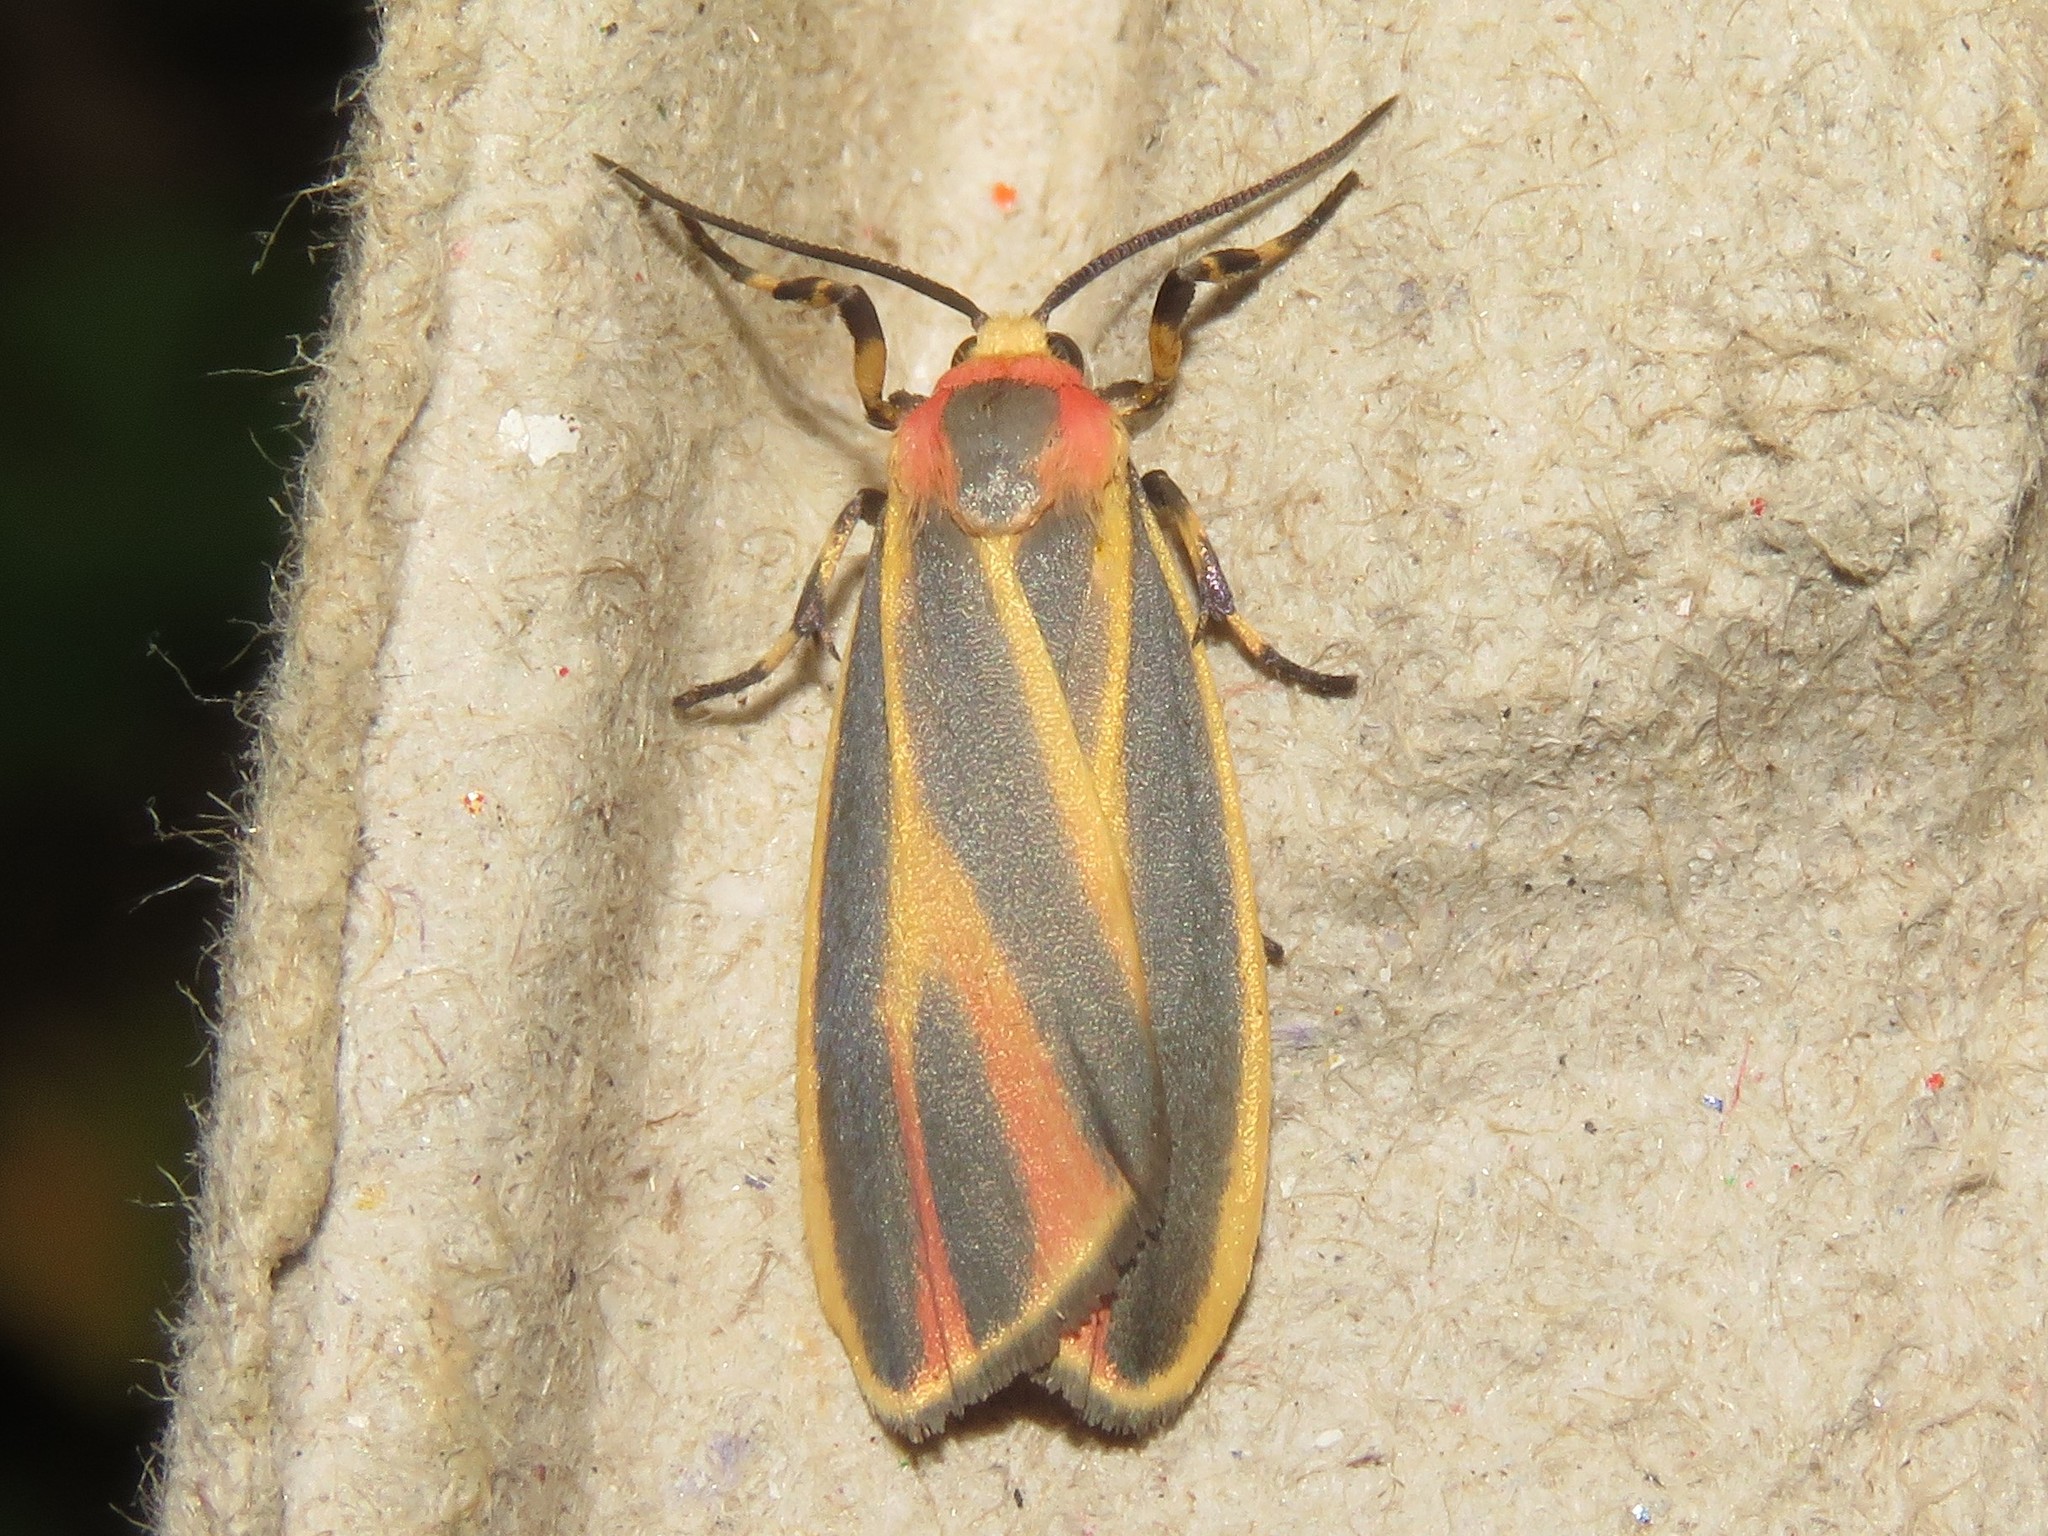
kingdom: Animalia
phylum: Arthropoda
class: Insecta
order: Lepidoptera
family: Erebidae
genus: Hypoprepia
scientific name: Hypoprepia fucosa
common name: Painted lichen moth
